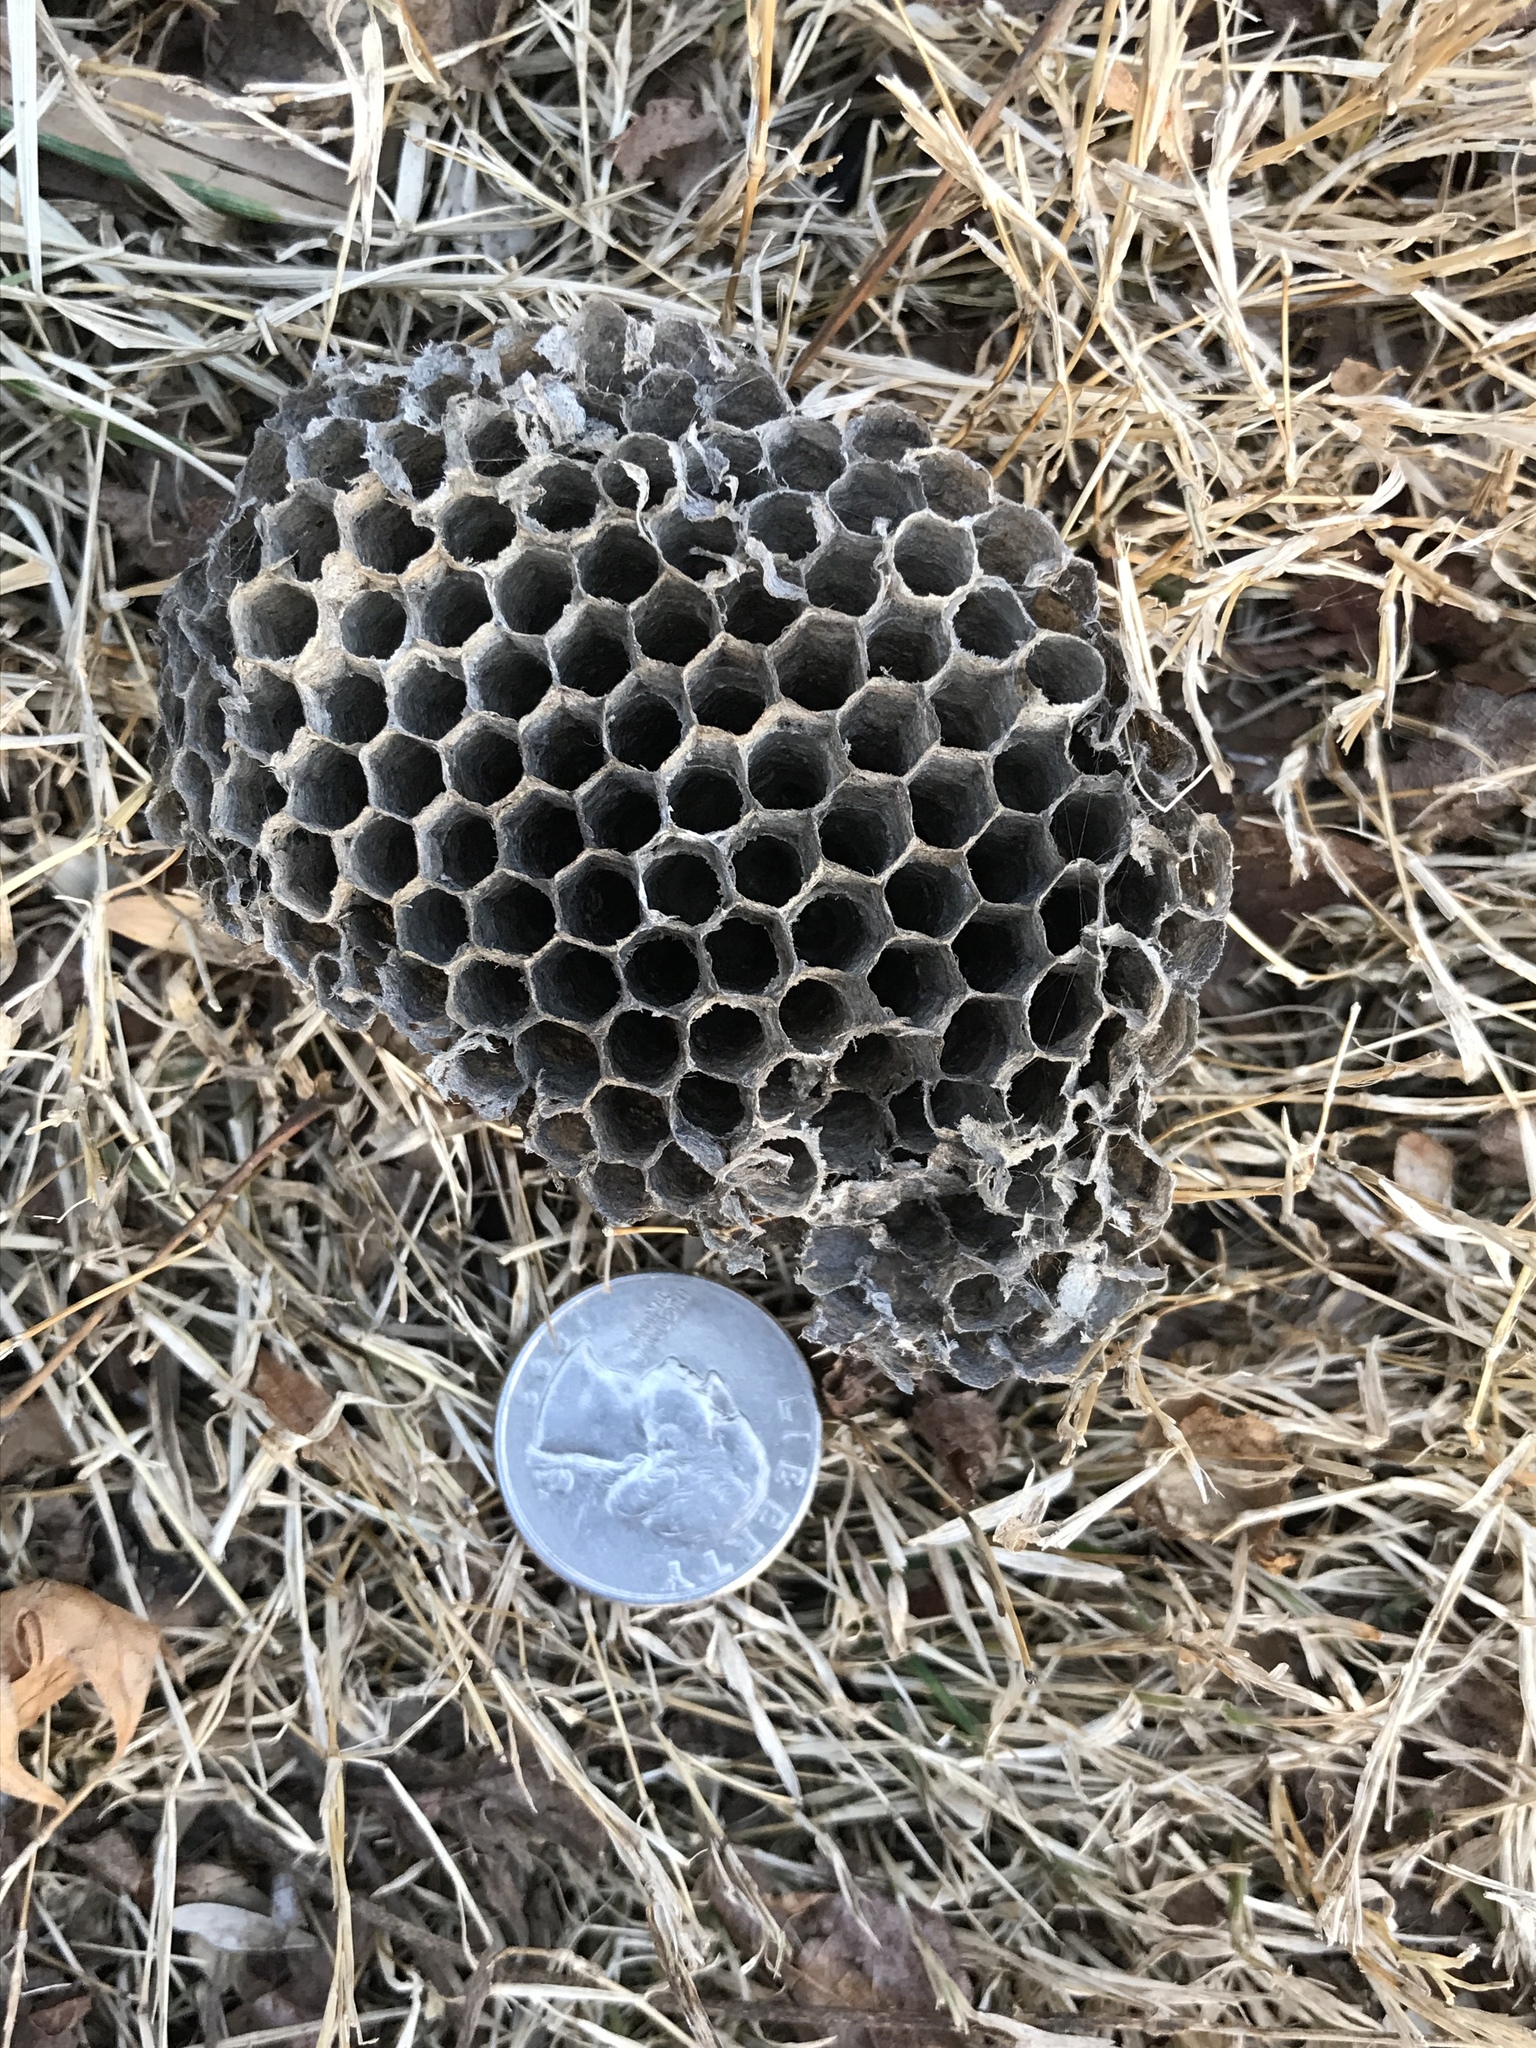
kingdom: Animalia
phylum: Arthropoda
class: Insecta
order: Hymenoptera
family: Eumenidae
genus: Polistes
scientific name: Polistes
